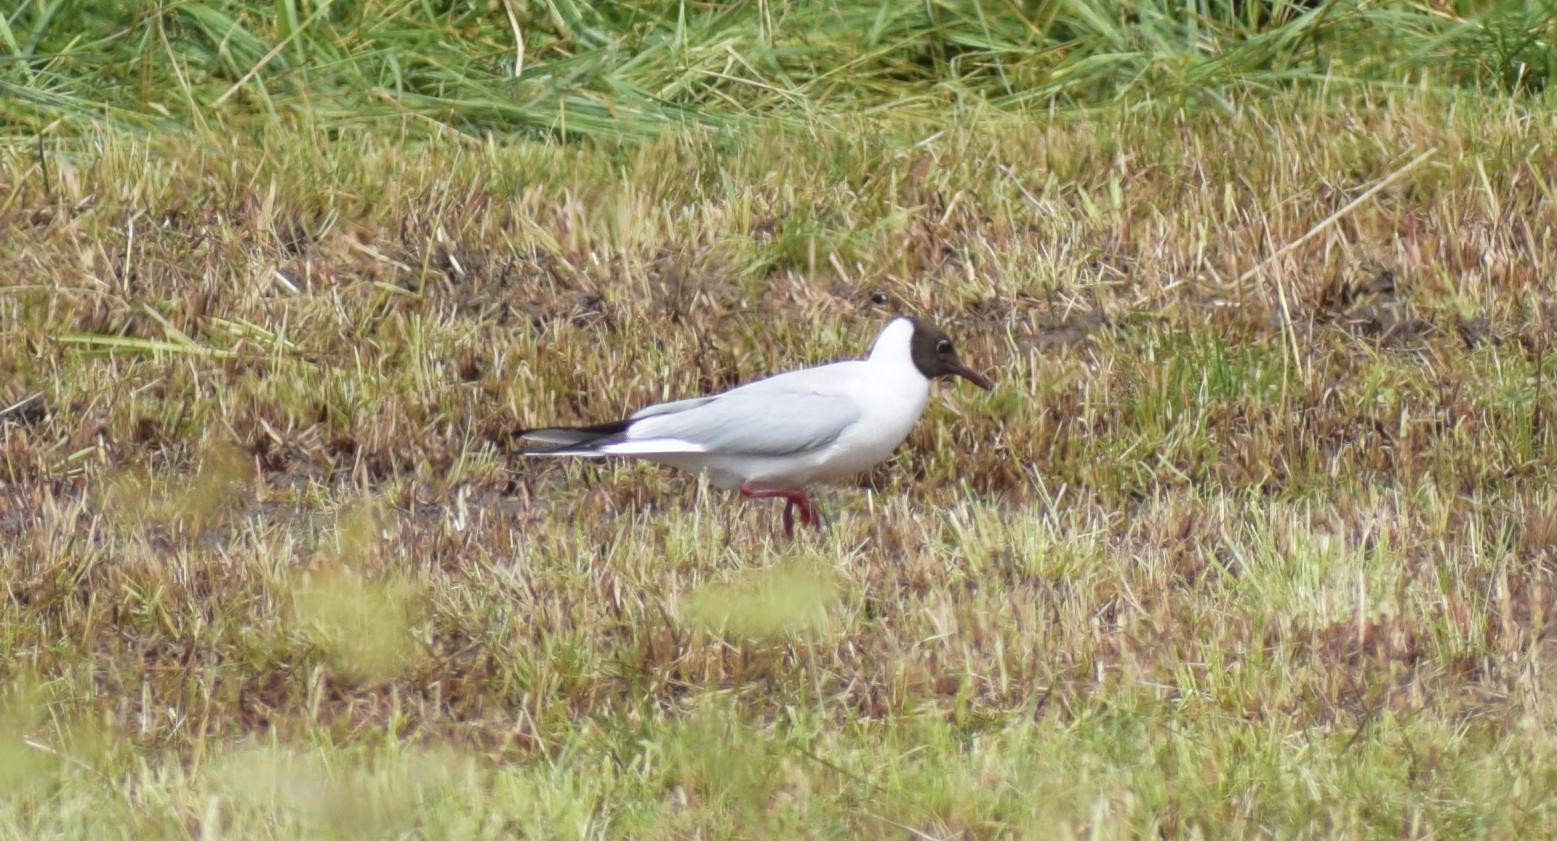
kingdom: Animalia
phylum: Chordata
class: Aves
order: Charadriiformes
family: Laridae
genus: Chroicocephalus
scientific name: Chroicocephalus ridibundus
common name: Black-headed gull
